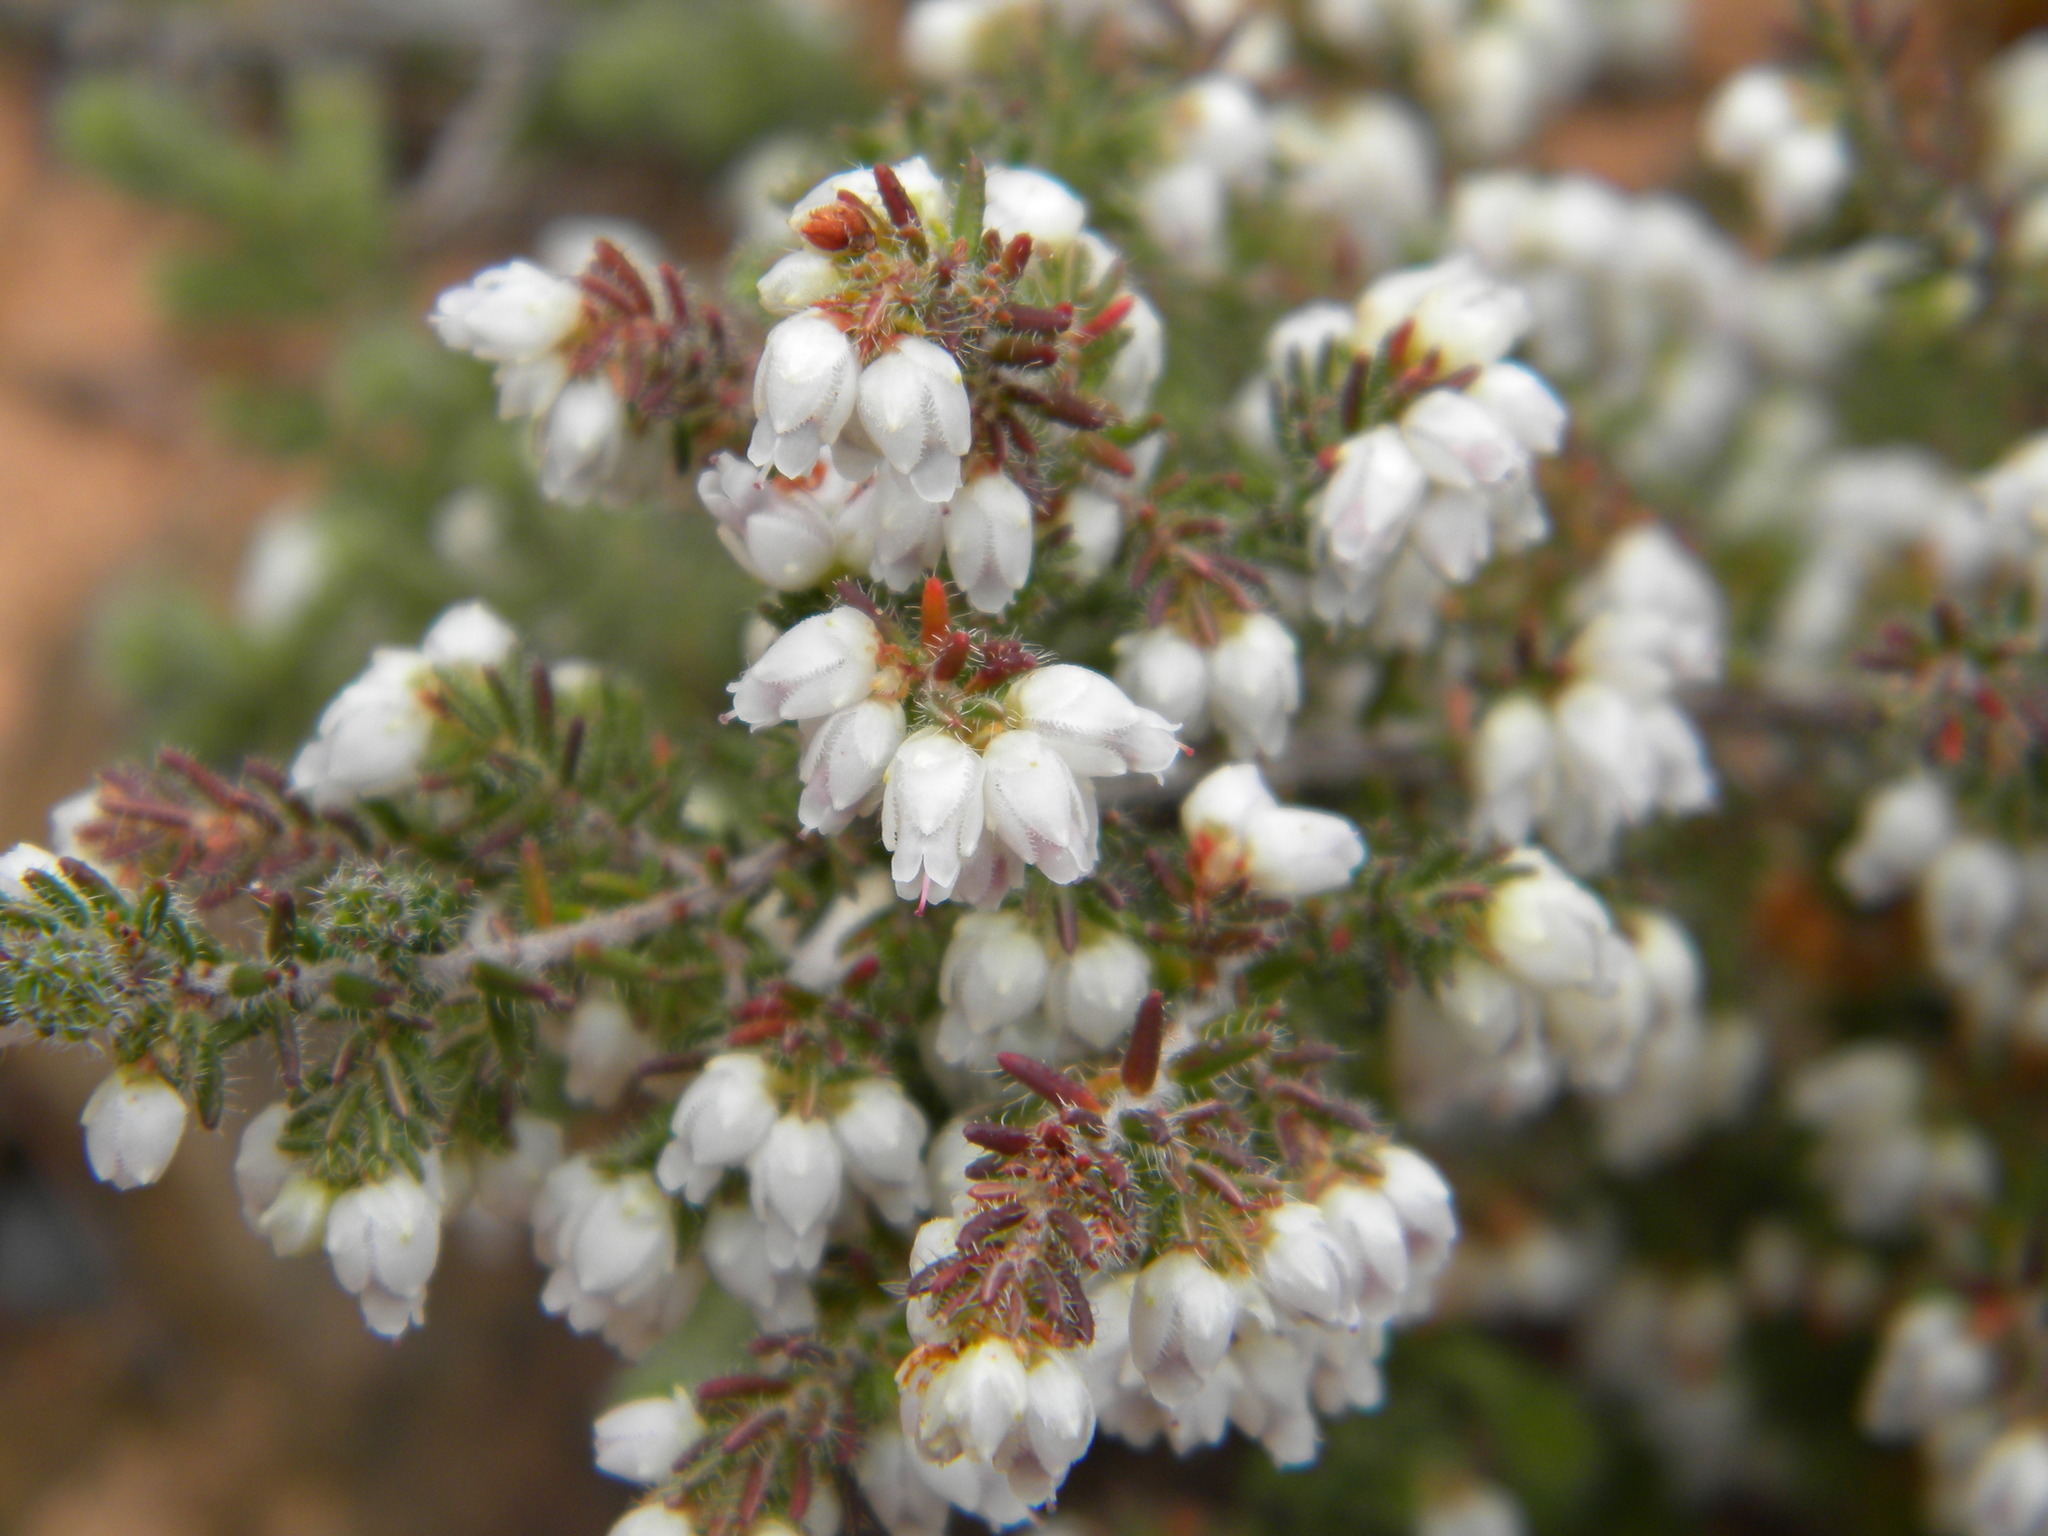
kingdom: Plantae
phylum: Tracheophyta
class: Magnoliopsida
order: Ericales
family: Ericaceae
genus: Erica
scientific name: Erica totta
